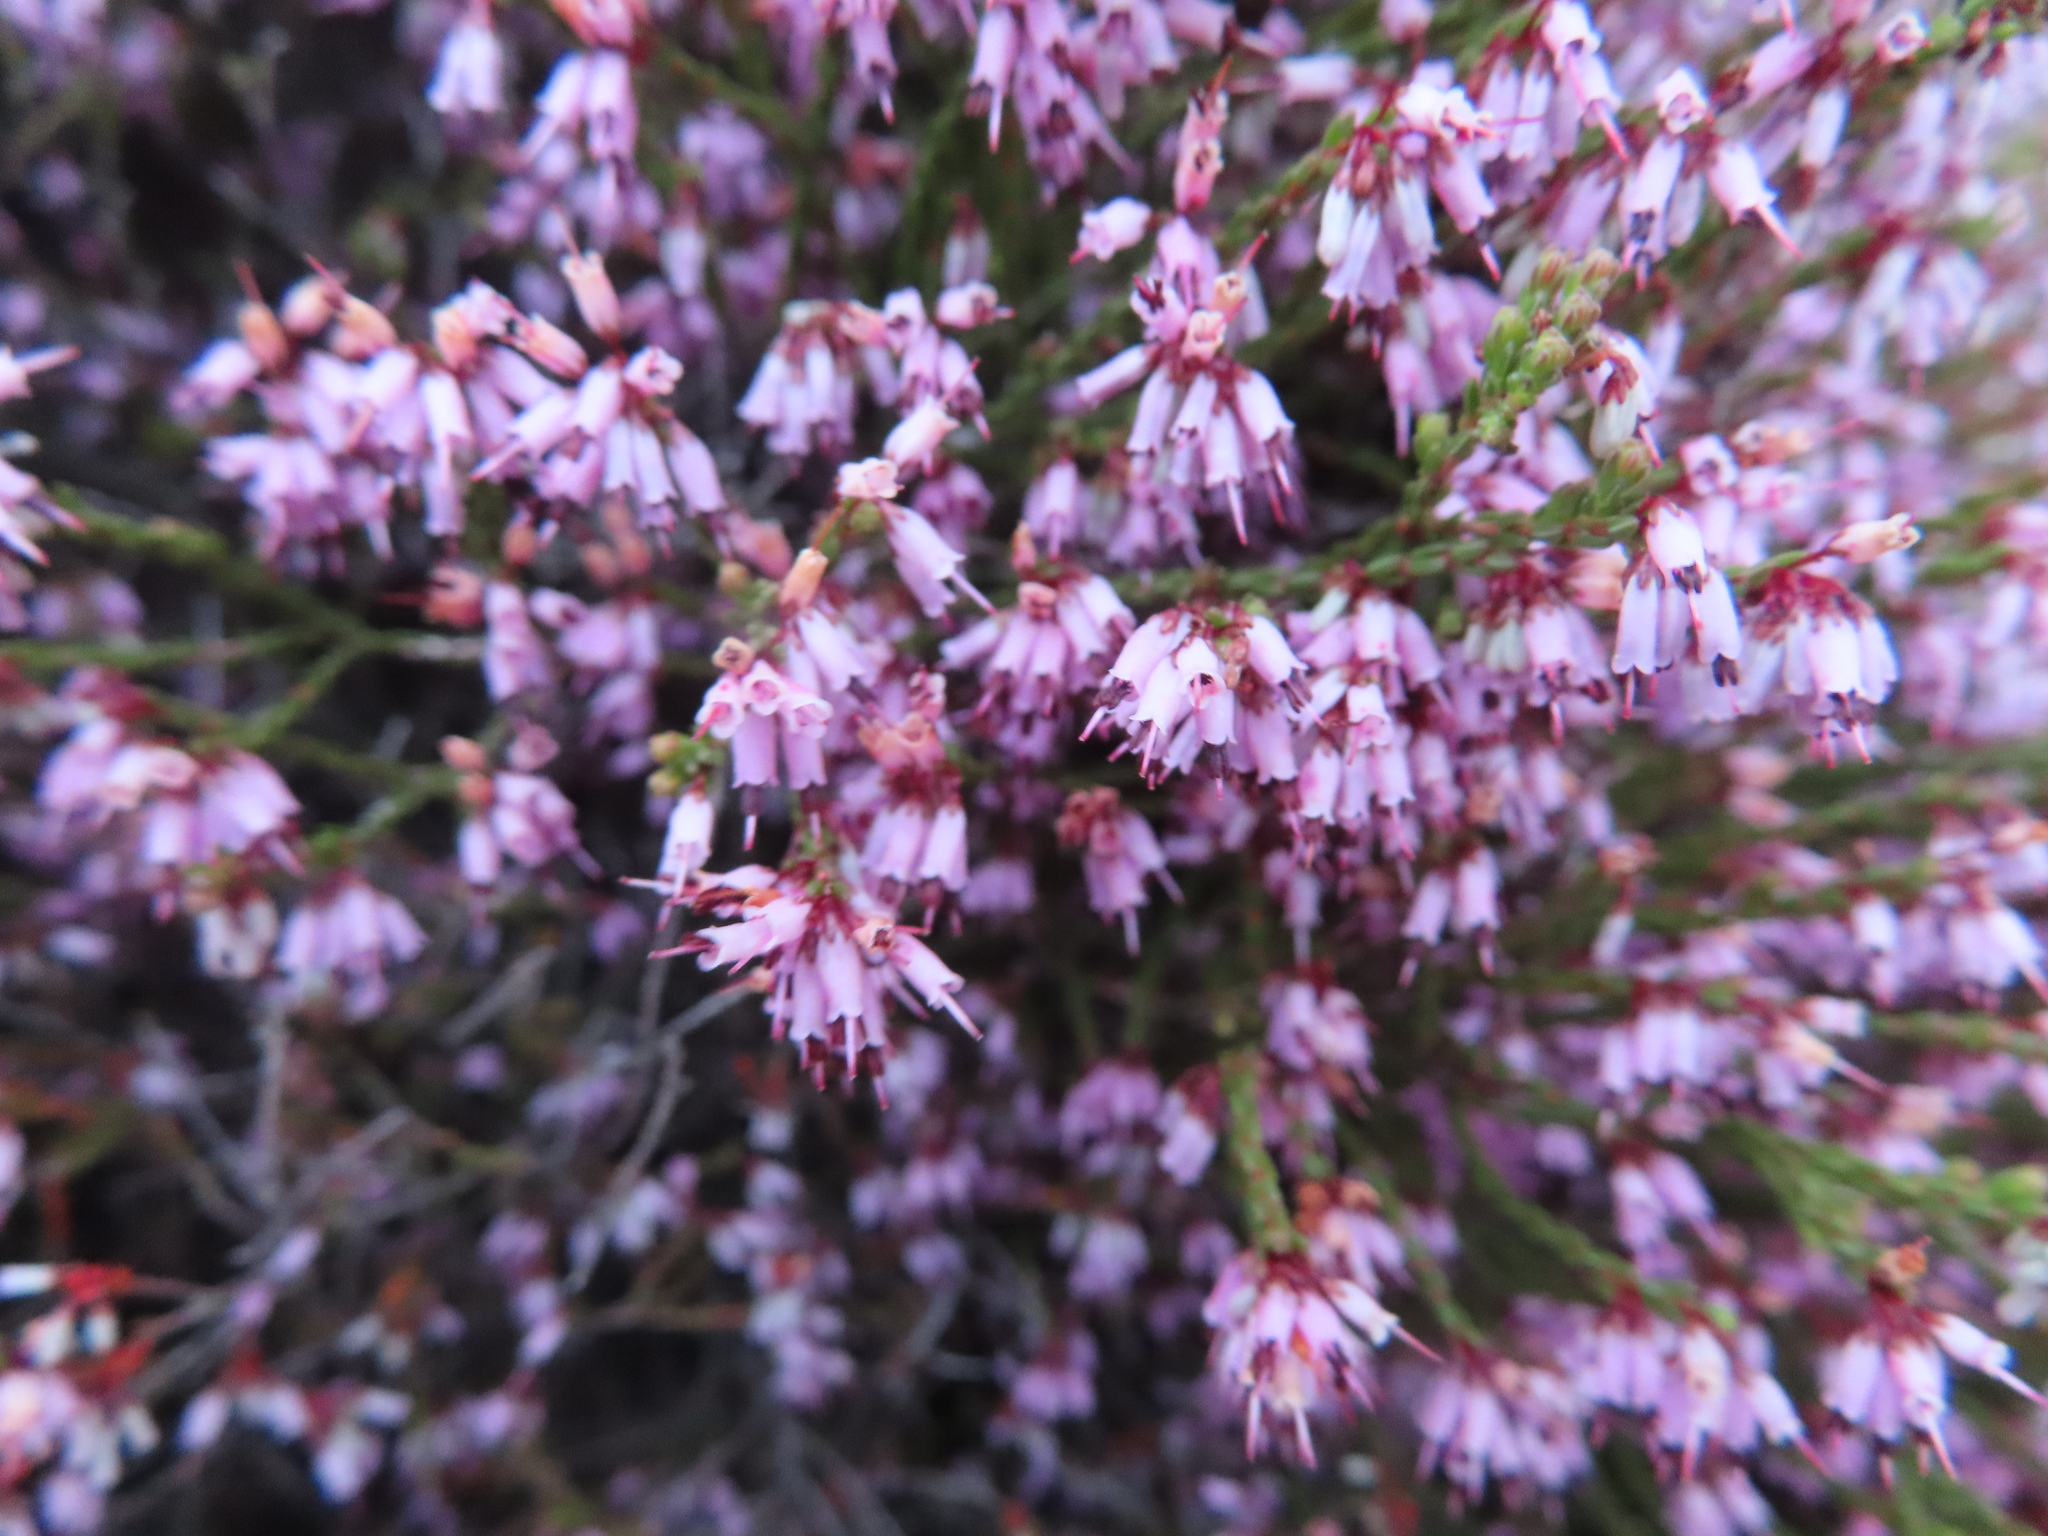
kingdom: Plantae
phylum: Tracheophyta
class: Magnoliopsida
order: Ericales
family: Ericaceae
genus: Erica
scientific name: Erica equisetifolia
